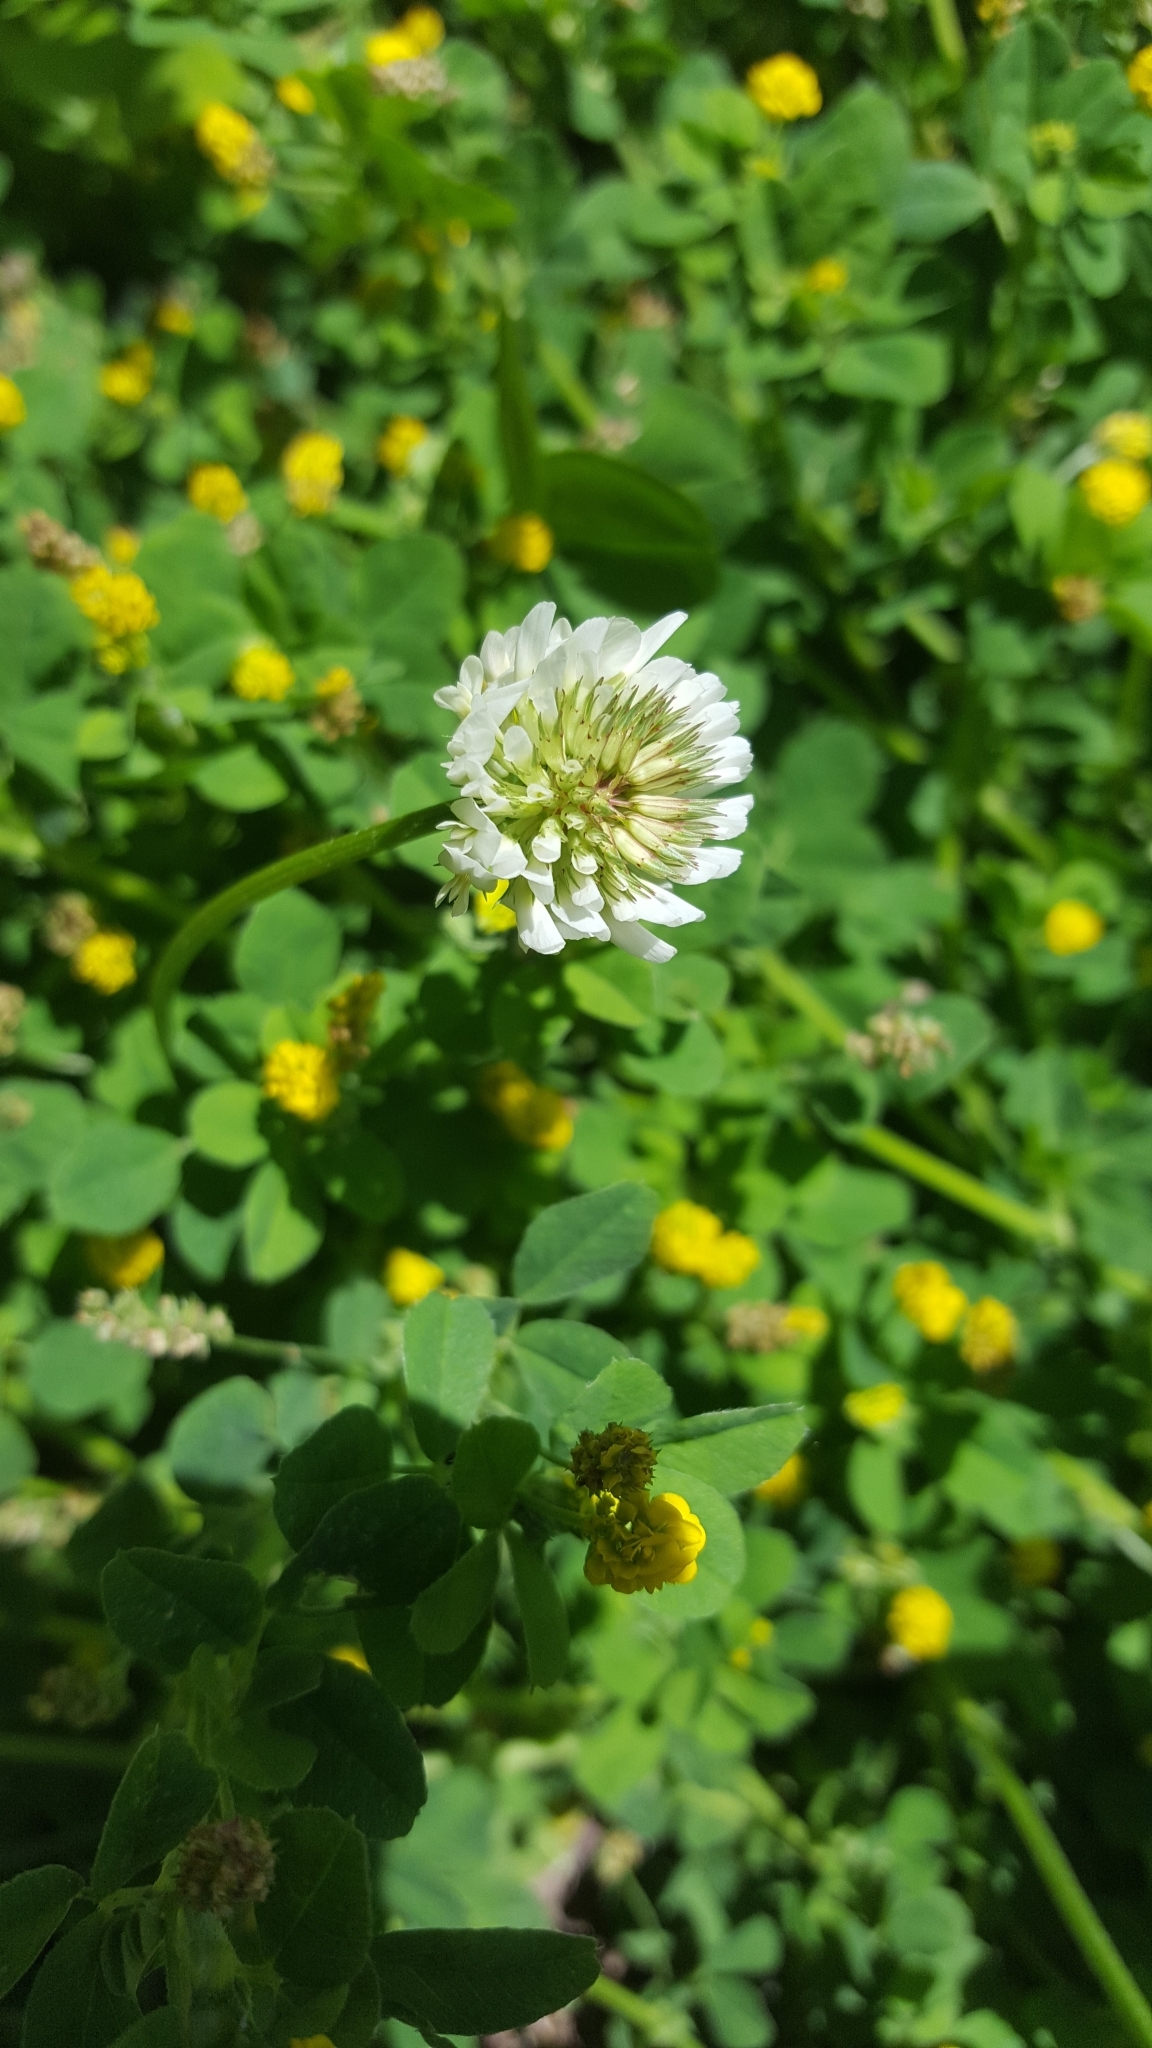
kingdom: Plantae
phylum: Tracheophyta
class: Magnoliopsida
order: Fabales
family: Fabaceae
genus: Trifolium
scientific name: Trifolium repens
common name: White clover
